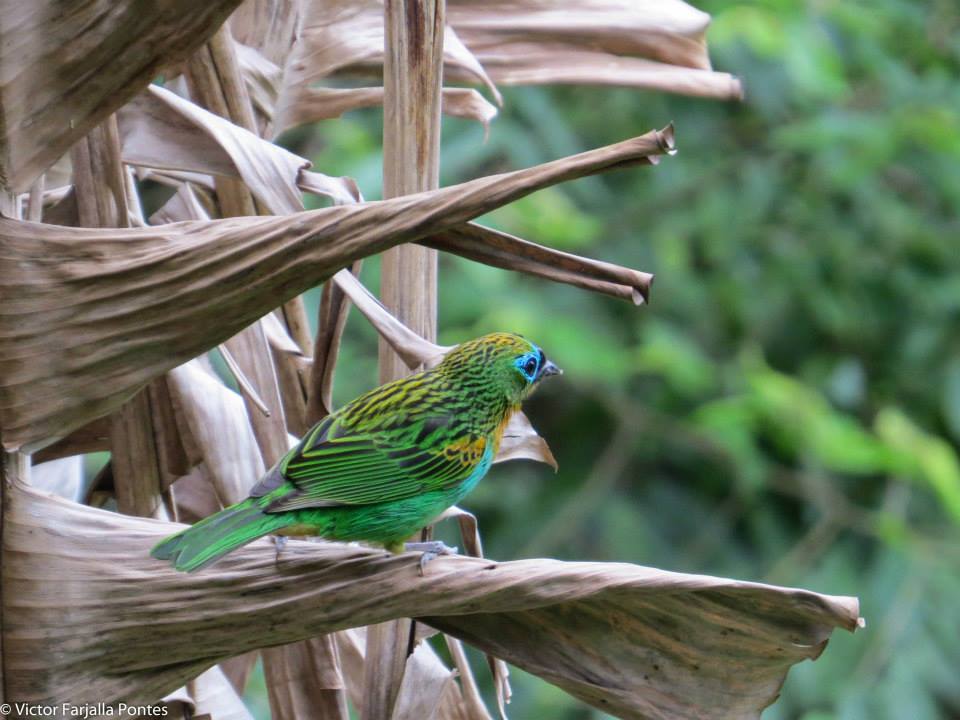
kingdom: Animalia
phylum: Chordata
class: Aves
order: Passeriformes
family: Thraupidae
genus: Tangara
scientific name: Tangara desmaresti
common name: Brassy-breasted tanager
